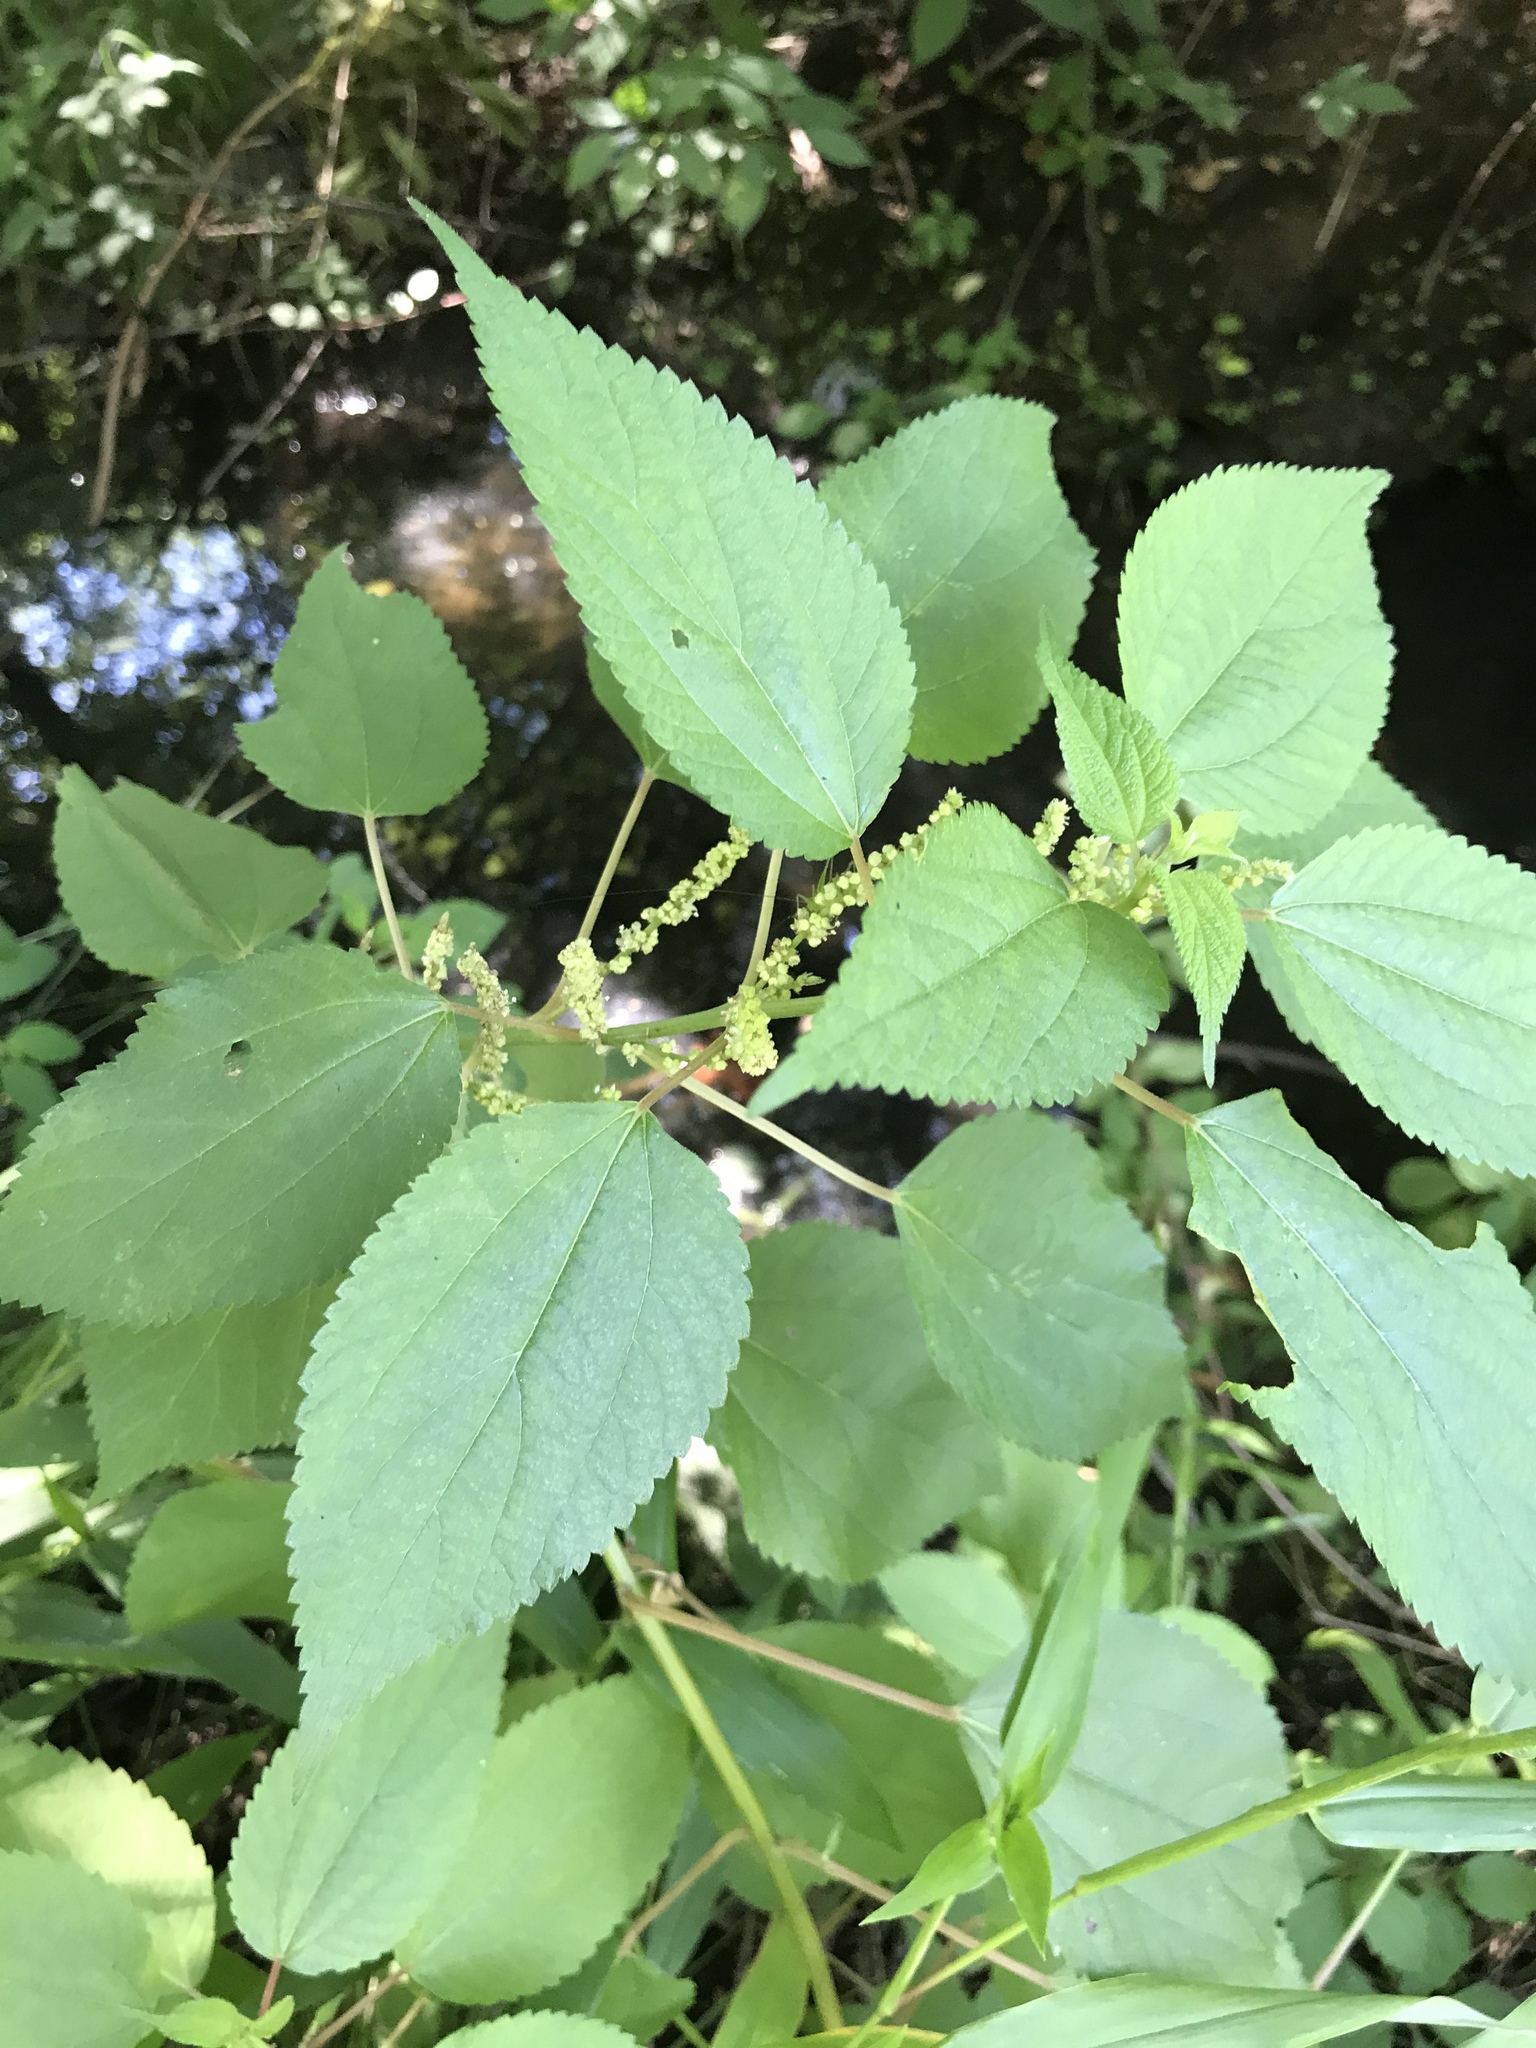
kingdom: Plantae
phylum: Tracheophyta
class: Magnoliopsida
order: Rosales
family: Urticaceae
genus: Boehmeria
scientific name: Boehmeria cylindrica
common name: Bog-hemp
